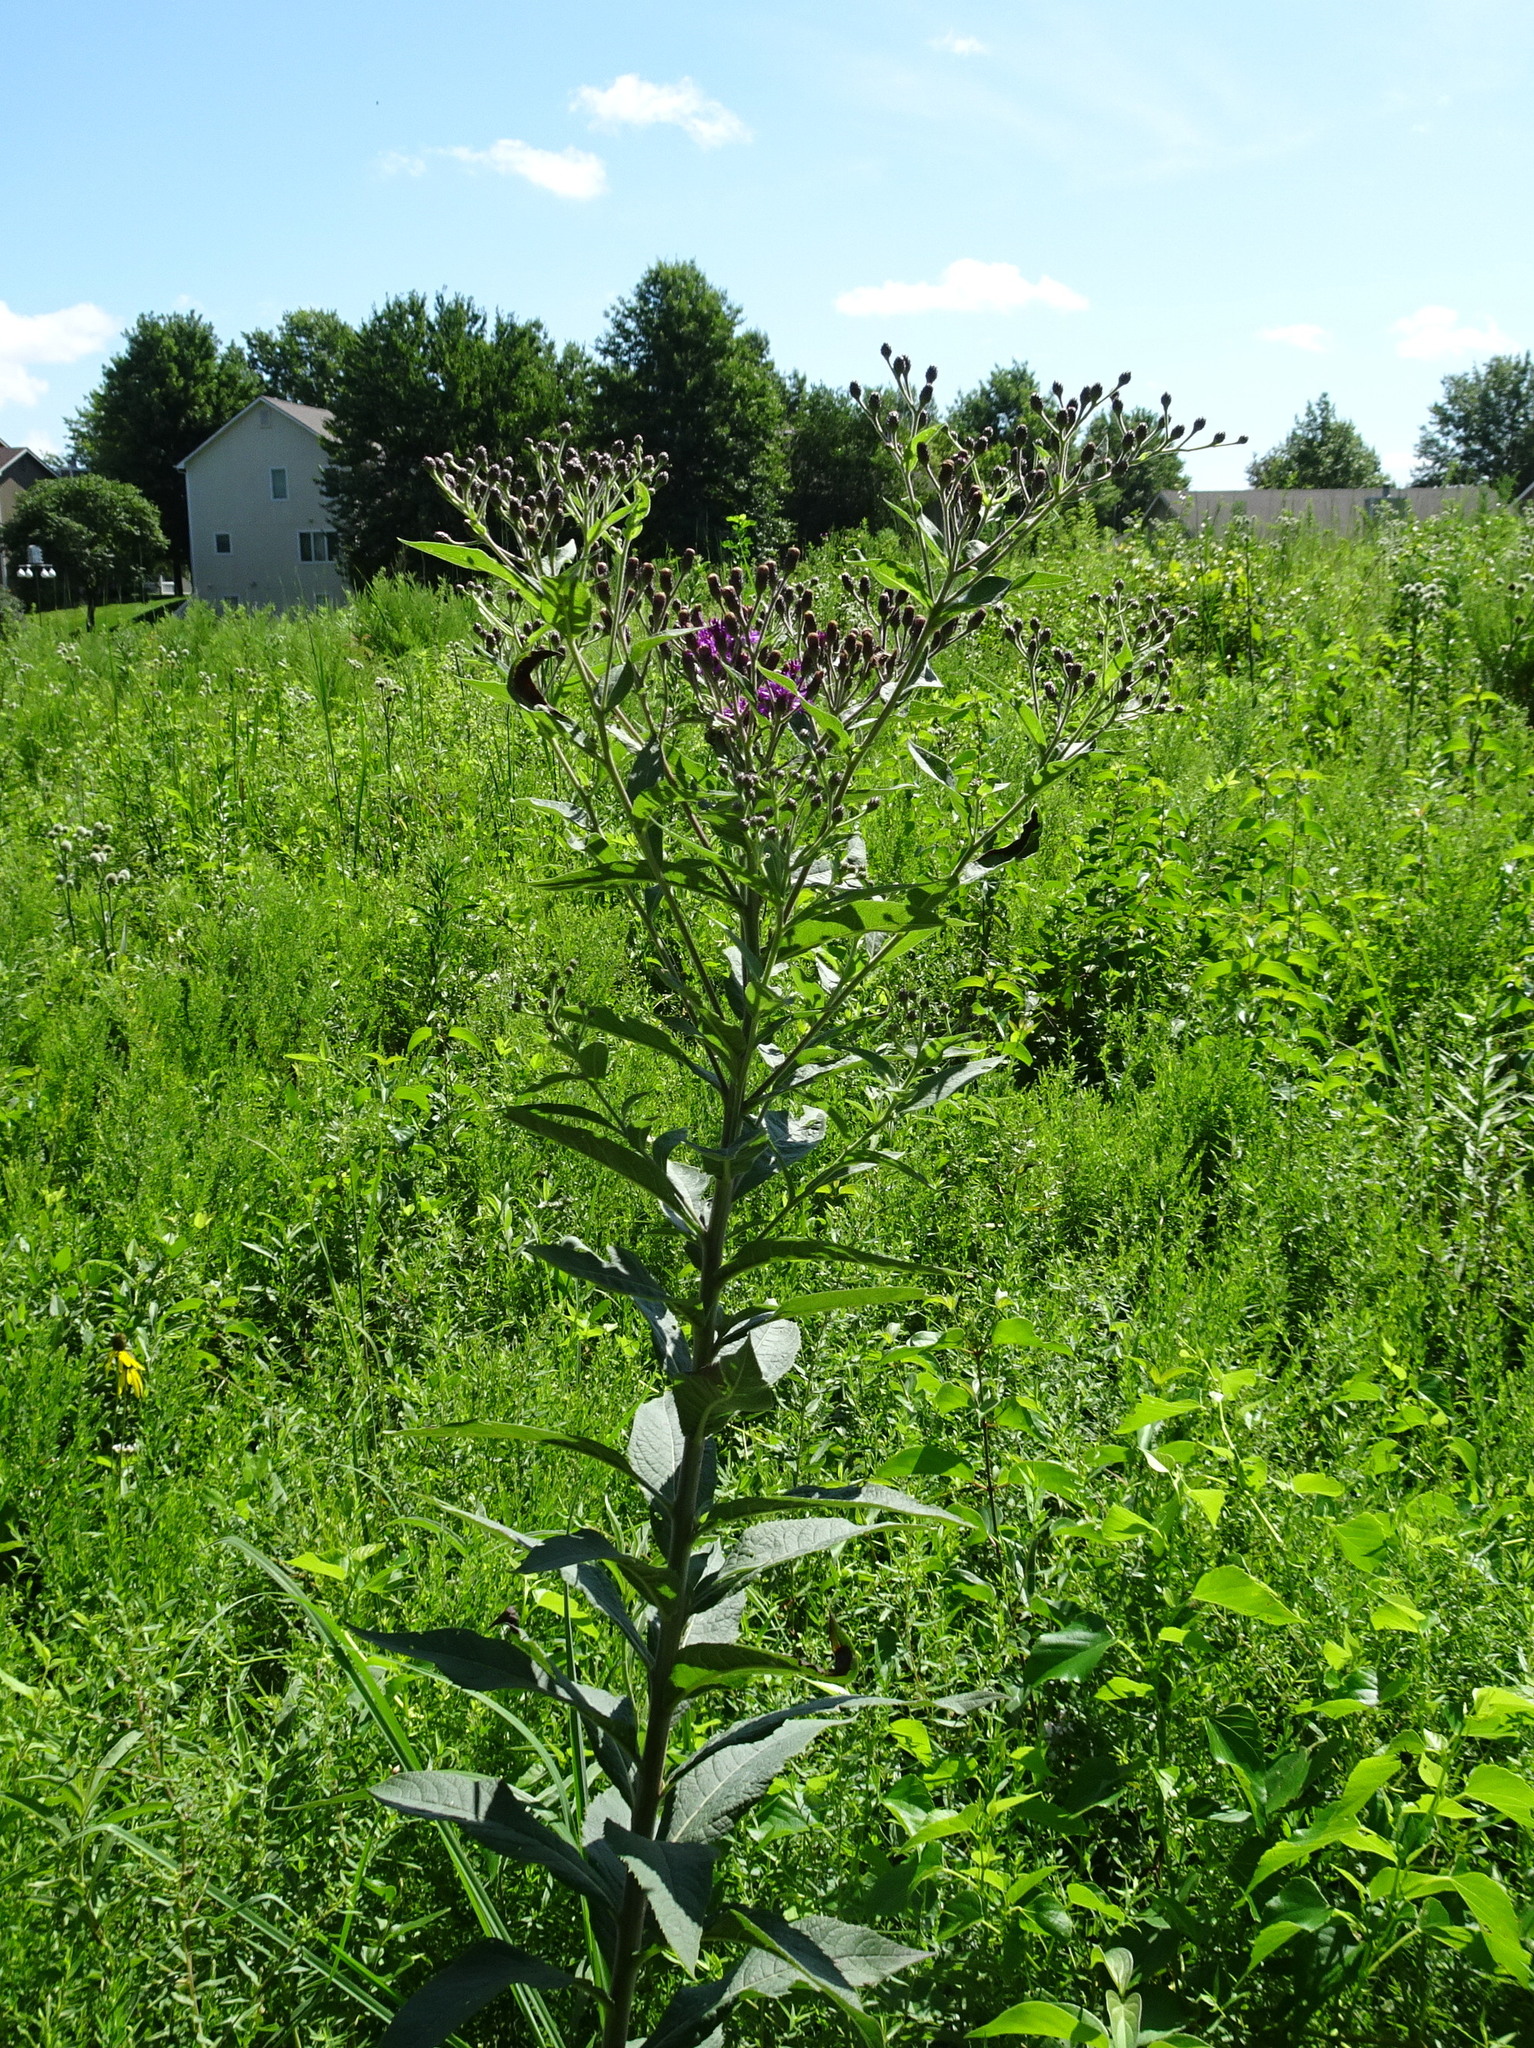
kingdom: Plantae
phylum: Tracheophyta
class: Magnoliopsida
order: Asterales
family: Asteraceae
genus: Vernonia
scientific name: Vernonia baldwinii
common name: Western ironweed
